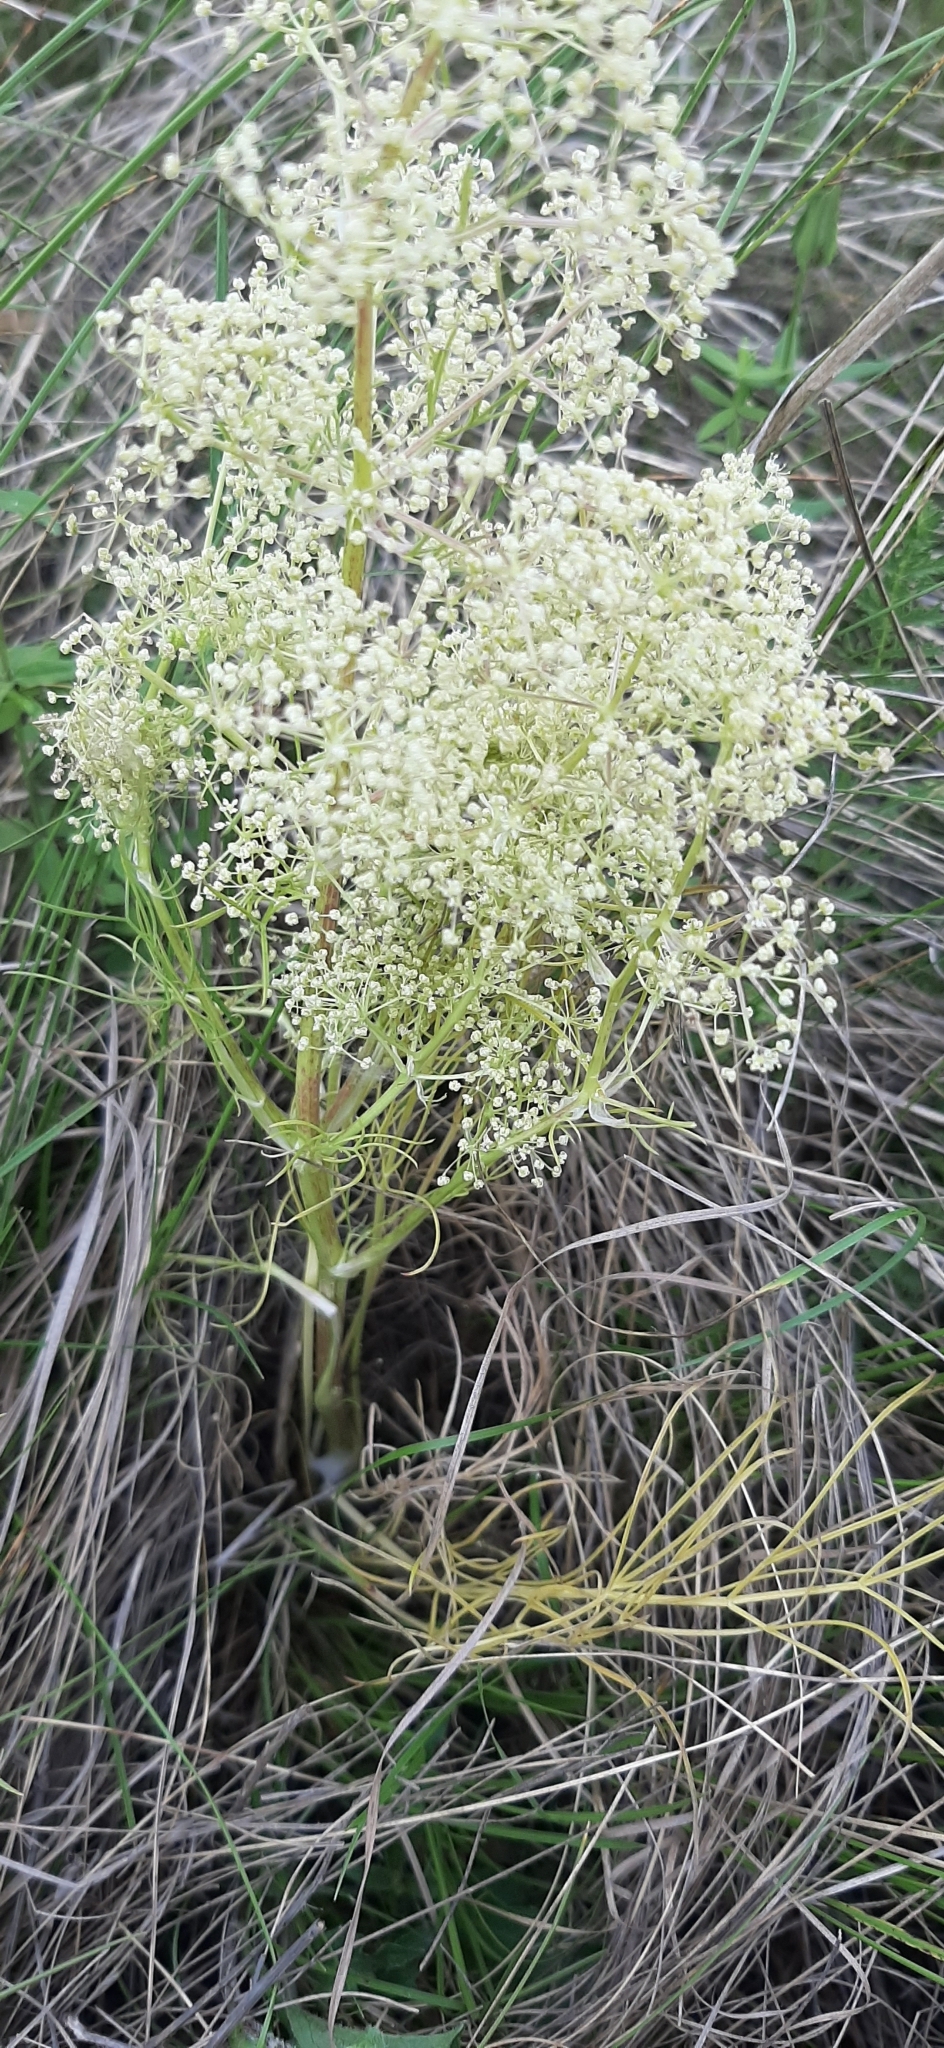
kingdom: Plantae
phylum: Tracheophyta
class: Magnoliopsida
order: Apiales
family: Apiaceae
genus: Trinia
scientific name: Trinia multicaulis
